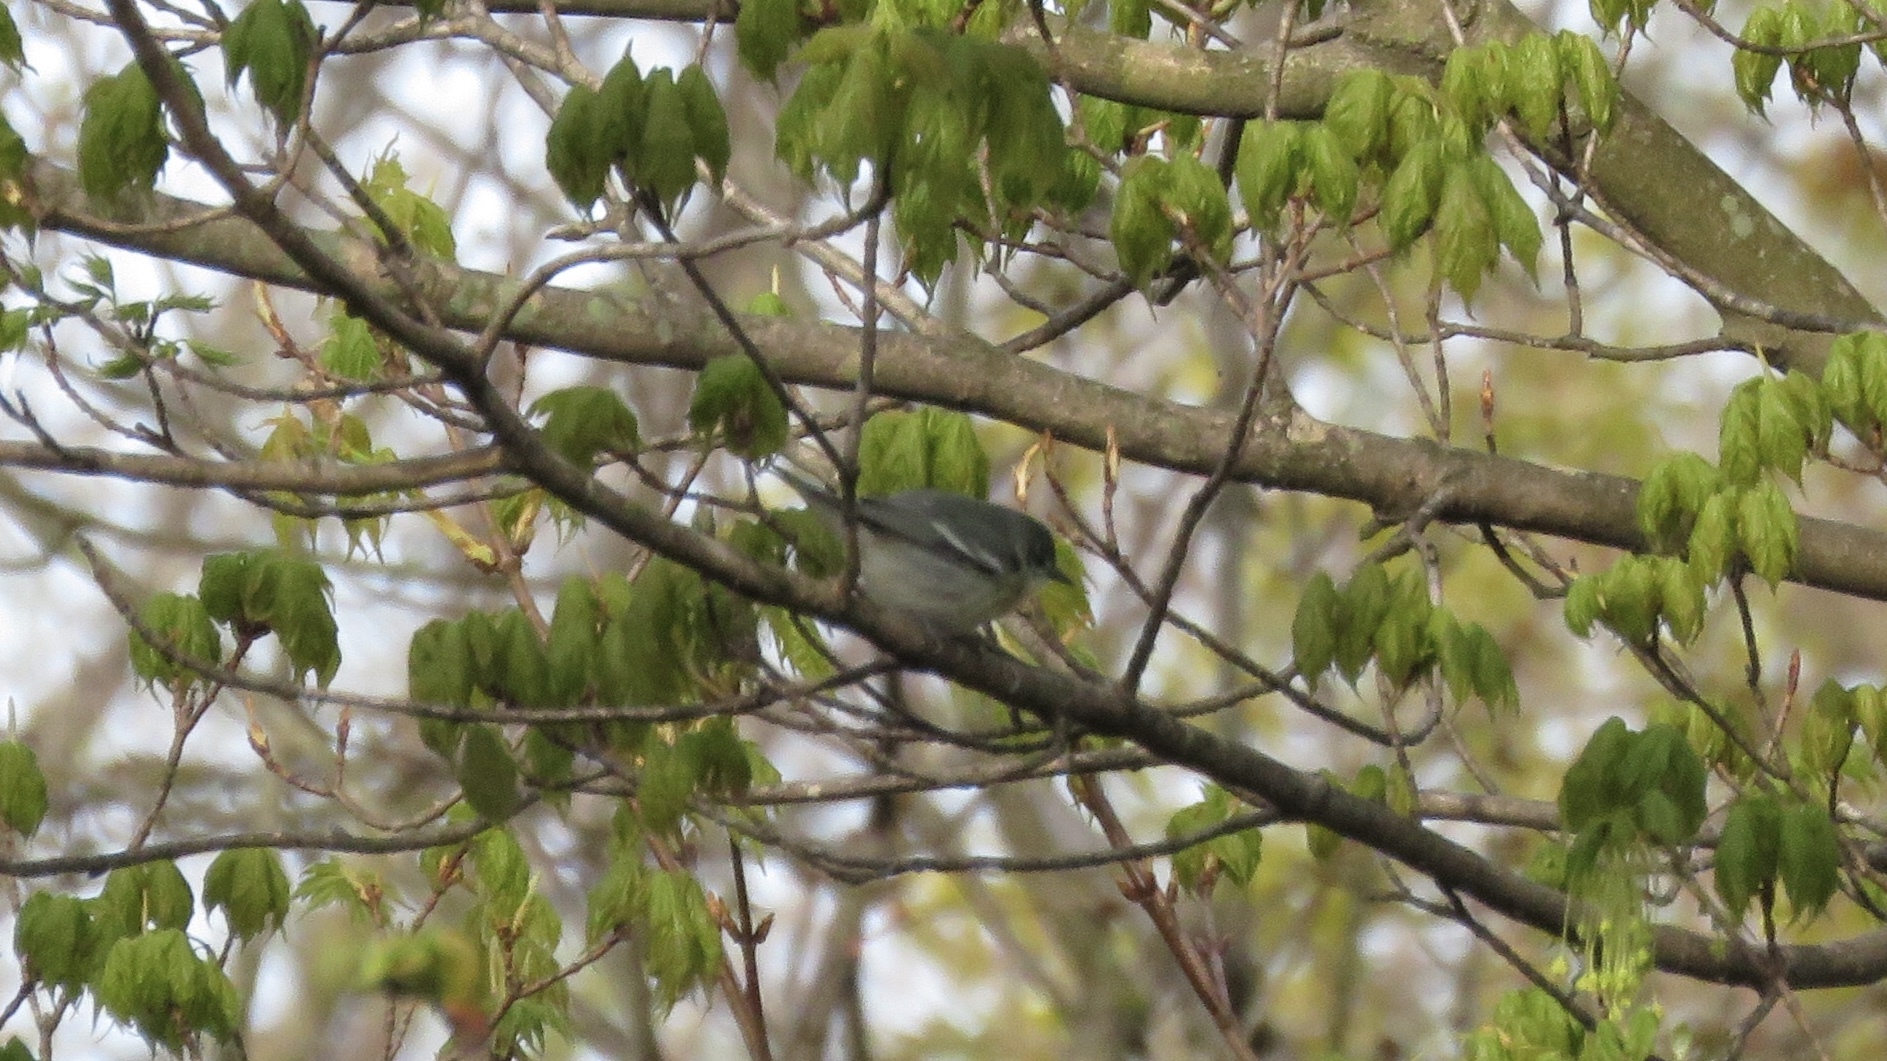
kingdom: Animalia
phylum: Chordata
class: Aves
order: Passeriformes
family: Parulidae
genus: Setophaga
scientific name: Setophaga cerulea
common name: Cerulean warbler
